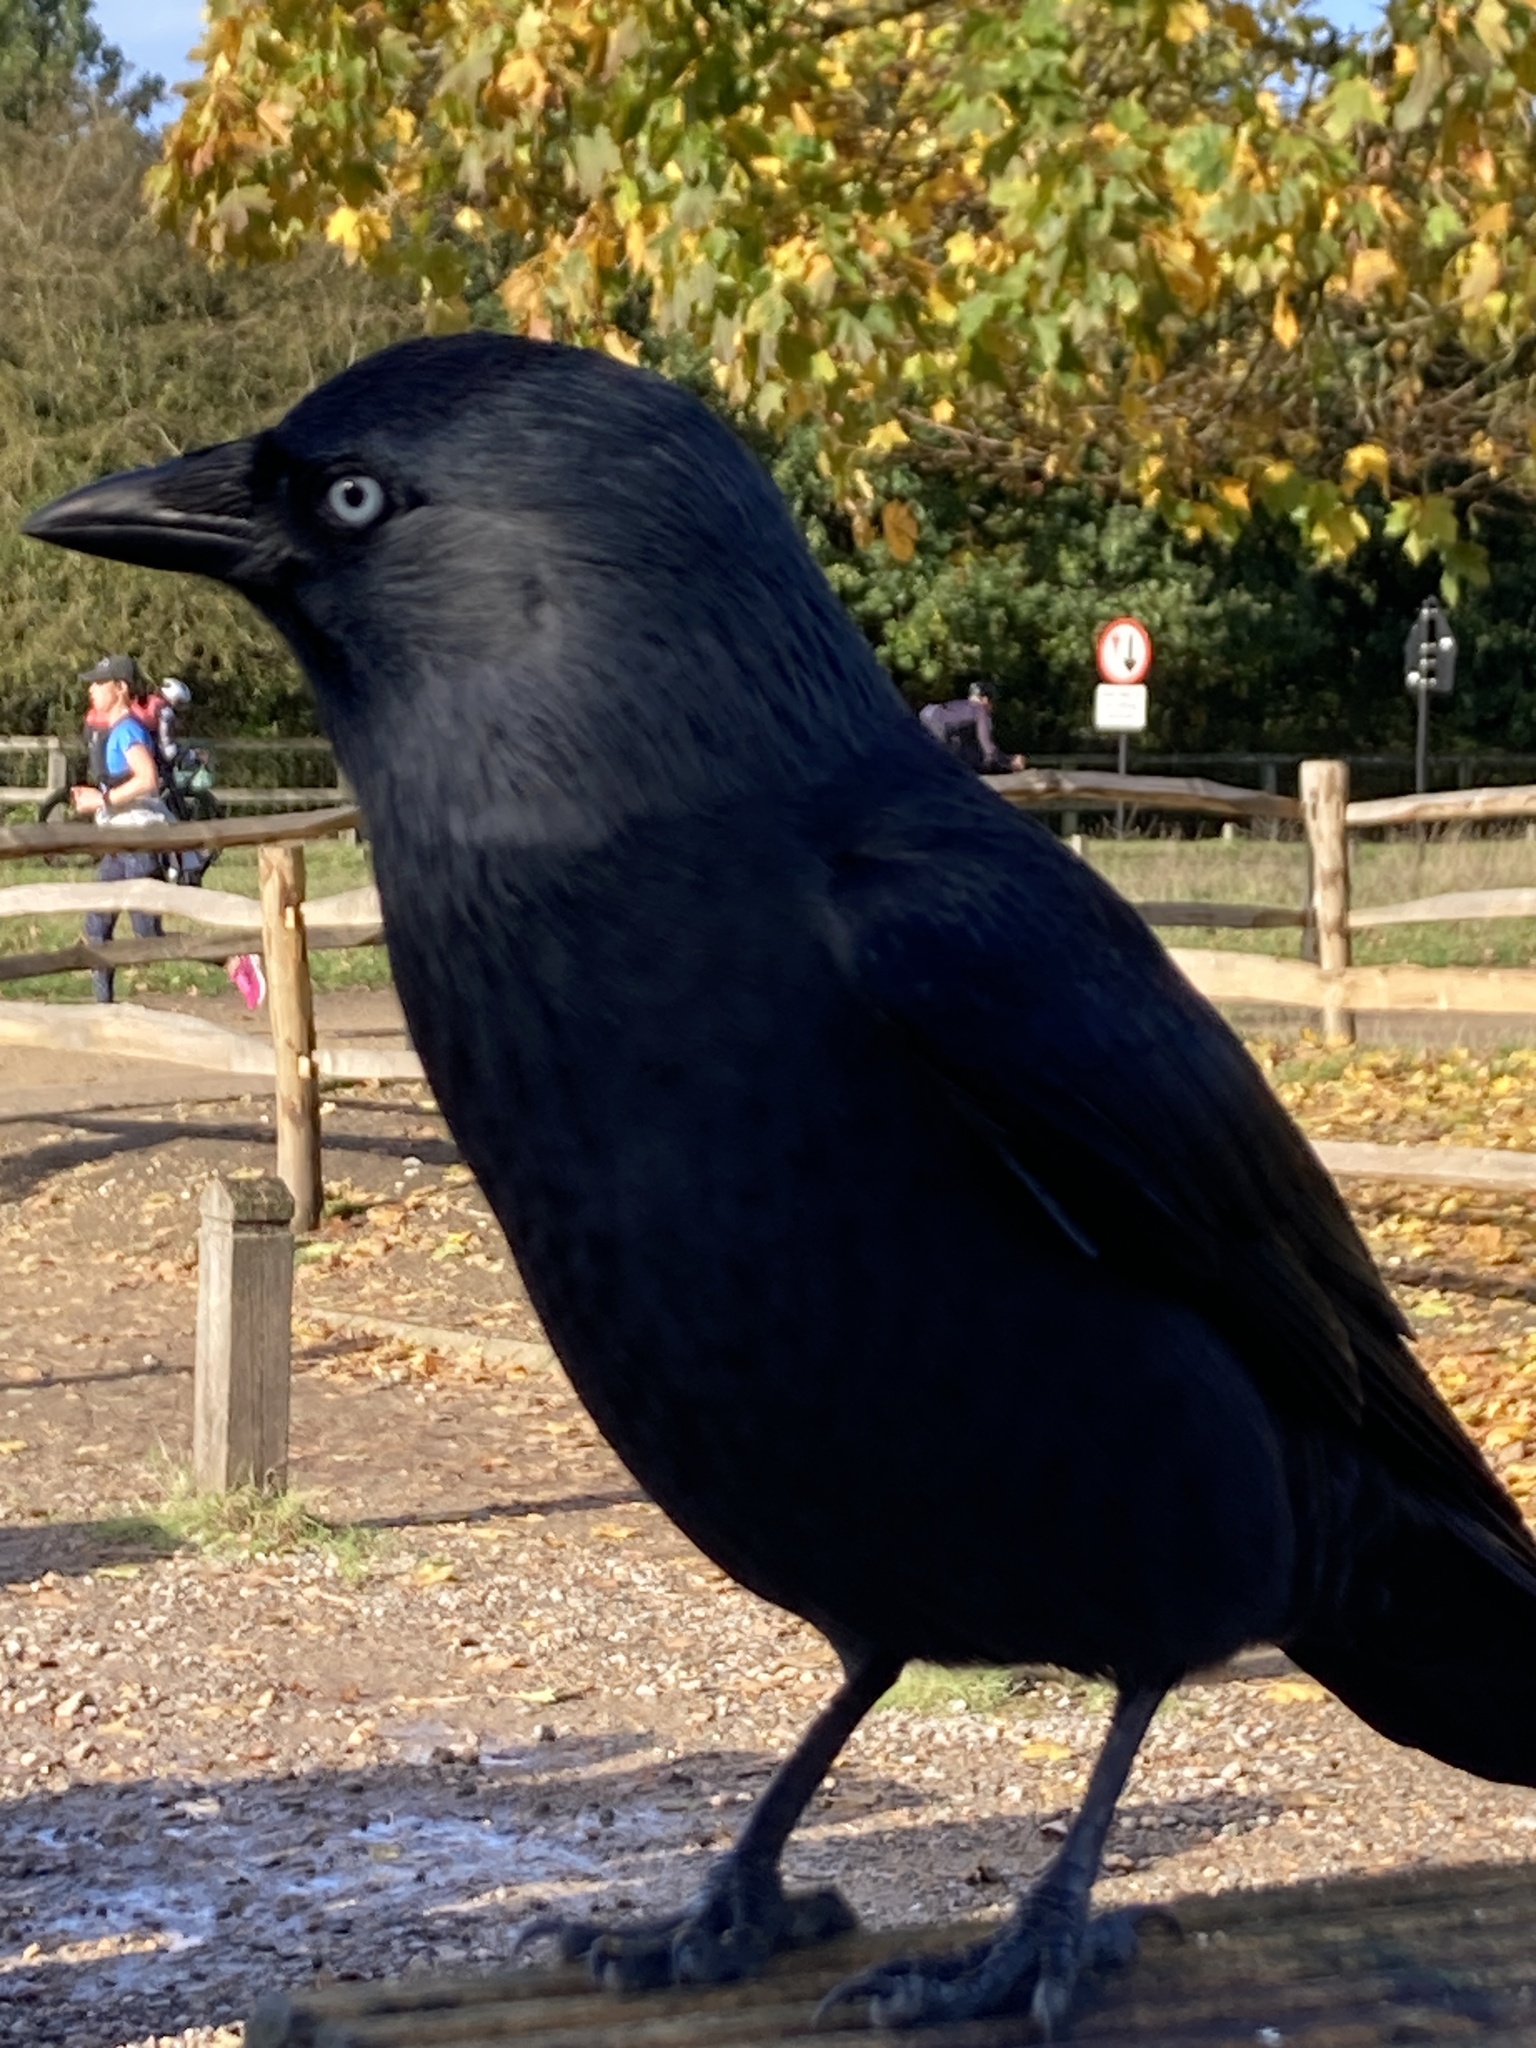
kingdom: Animalia
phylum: Chordata
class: Aves
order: Passeriformes
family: Corvidae
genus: Coloeus
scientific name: Coloeus monedula
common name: Western jackdaw
